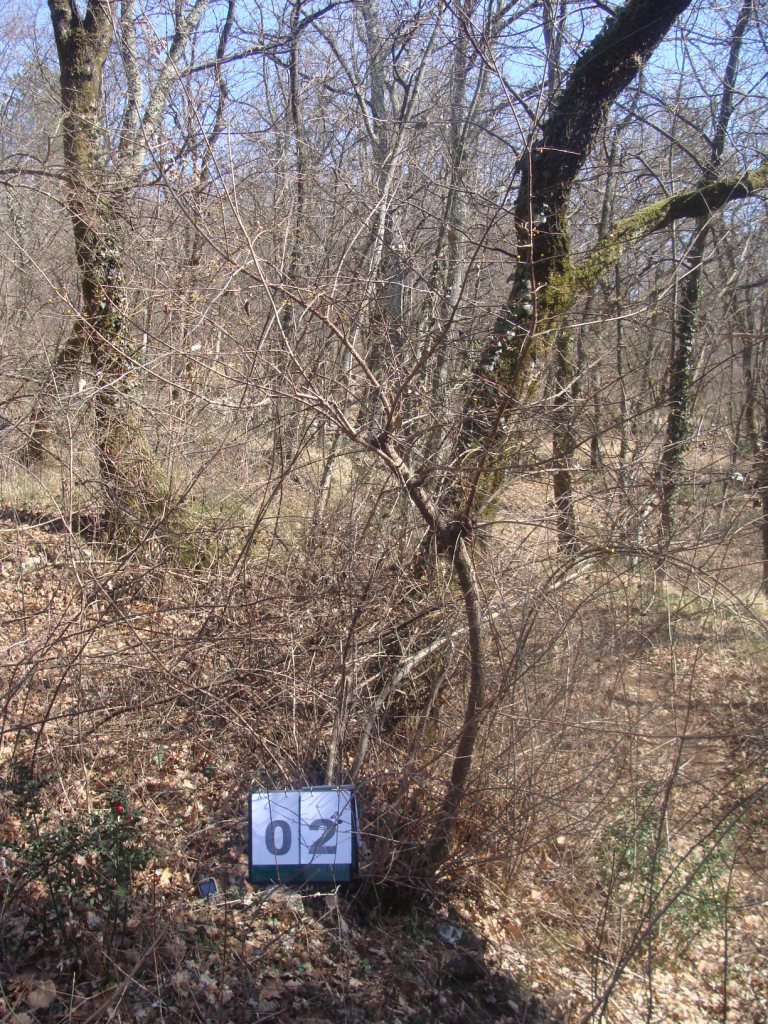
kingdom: Plantae
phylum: Tracheophyta
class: Magnoliopsida
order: Cornales
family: Cornaceae
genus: Cornus
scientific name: Cornus mas
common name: Cornelian-cherry
